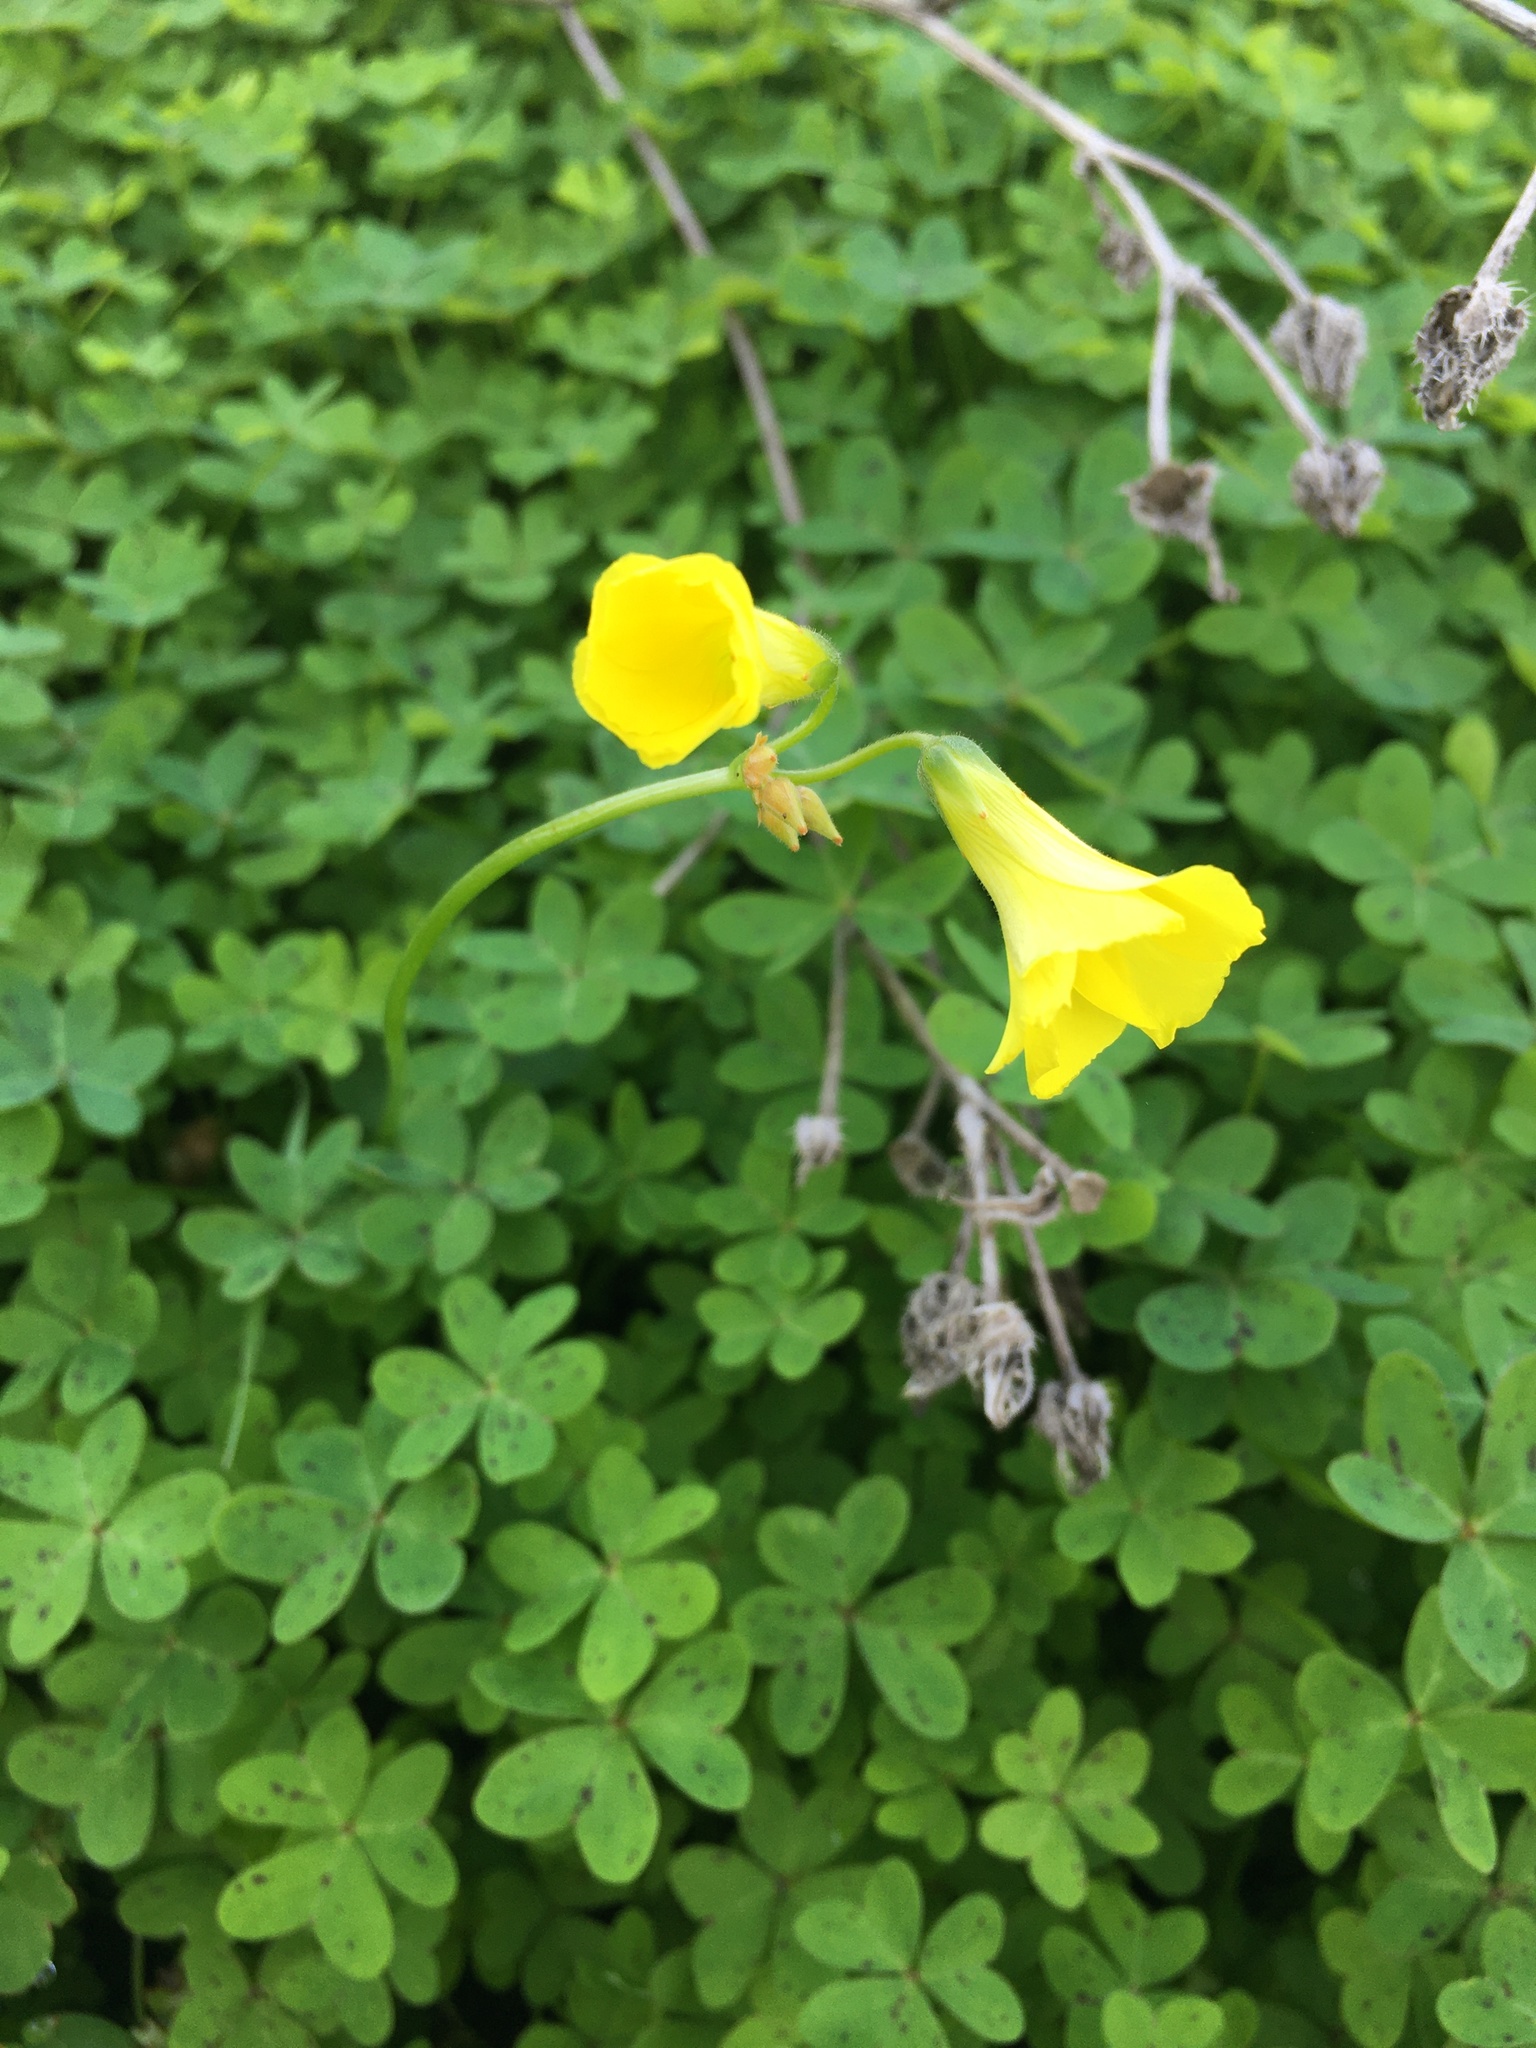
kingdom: Plantae
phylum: Tracheophyta
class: Magnoliopsida
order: Oxalidales
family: Oxalidaceae
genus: Oxalis
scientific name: Oxalis pes-caprae
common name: Bermuda-buttercup
